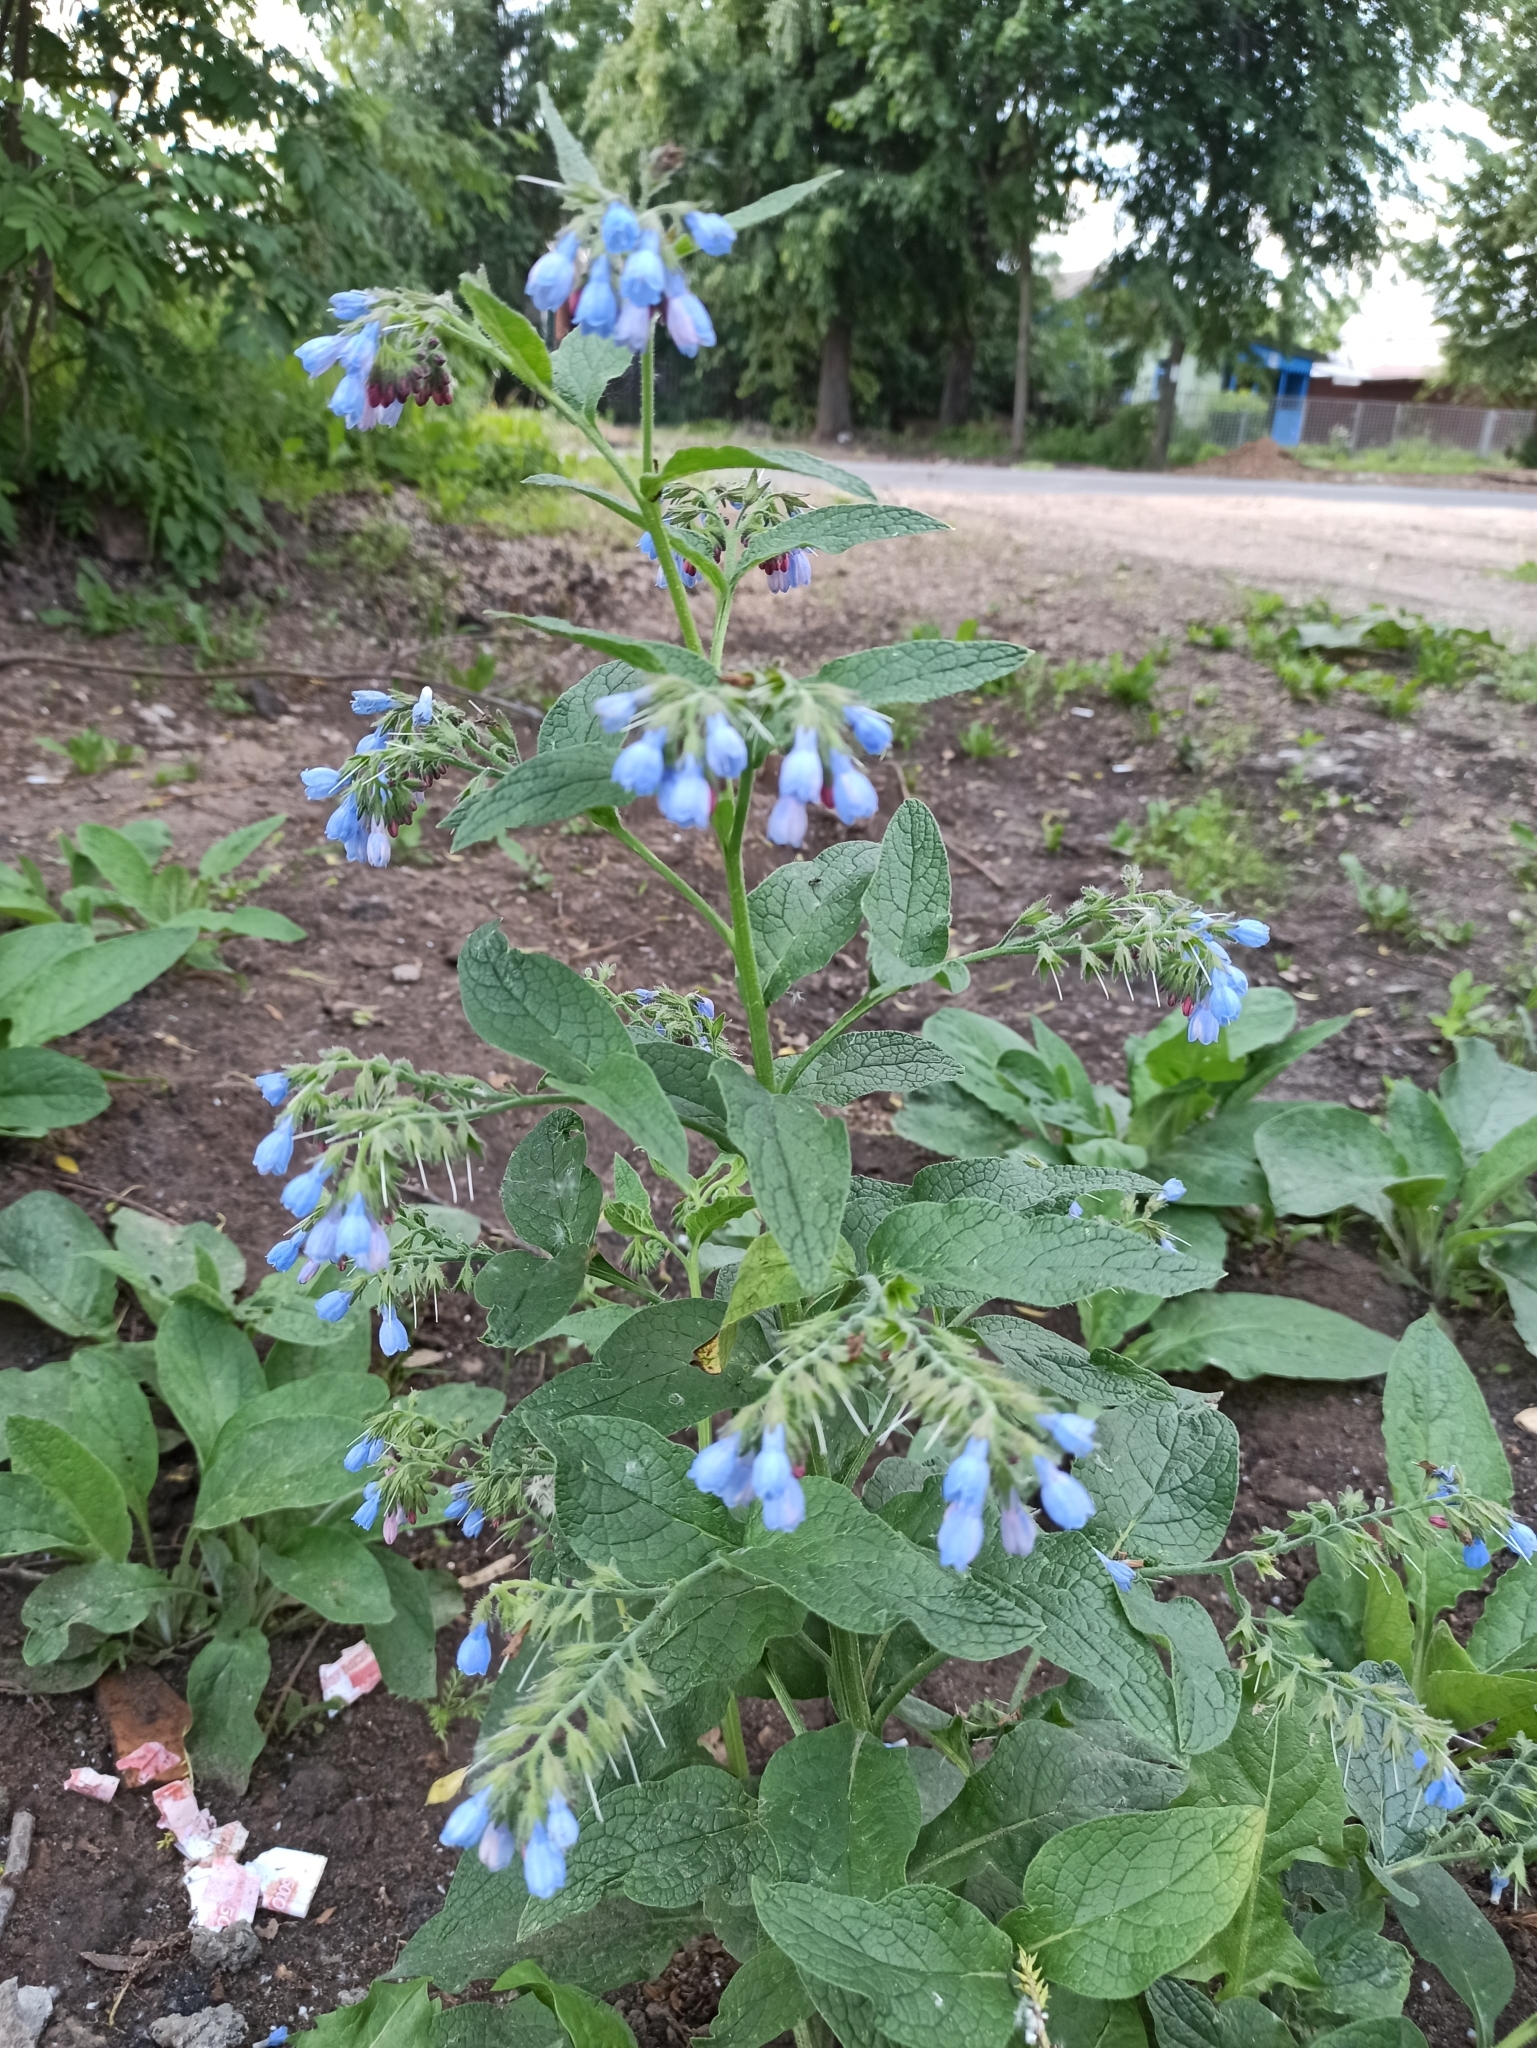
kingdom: Plantae
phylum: Tracheophyta
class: Magnoliopsida
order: Boraginales
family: Boraginaceae
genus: Symphytum
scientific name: Symphytum caucasicum
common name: Caucasian comfrey
